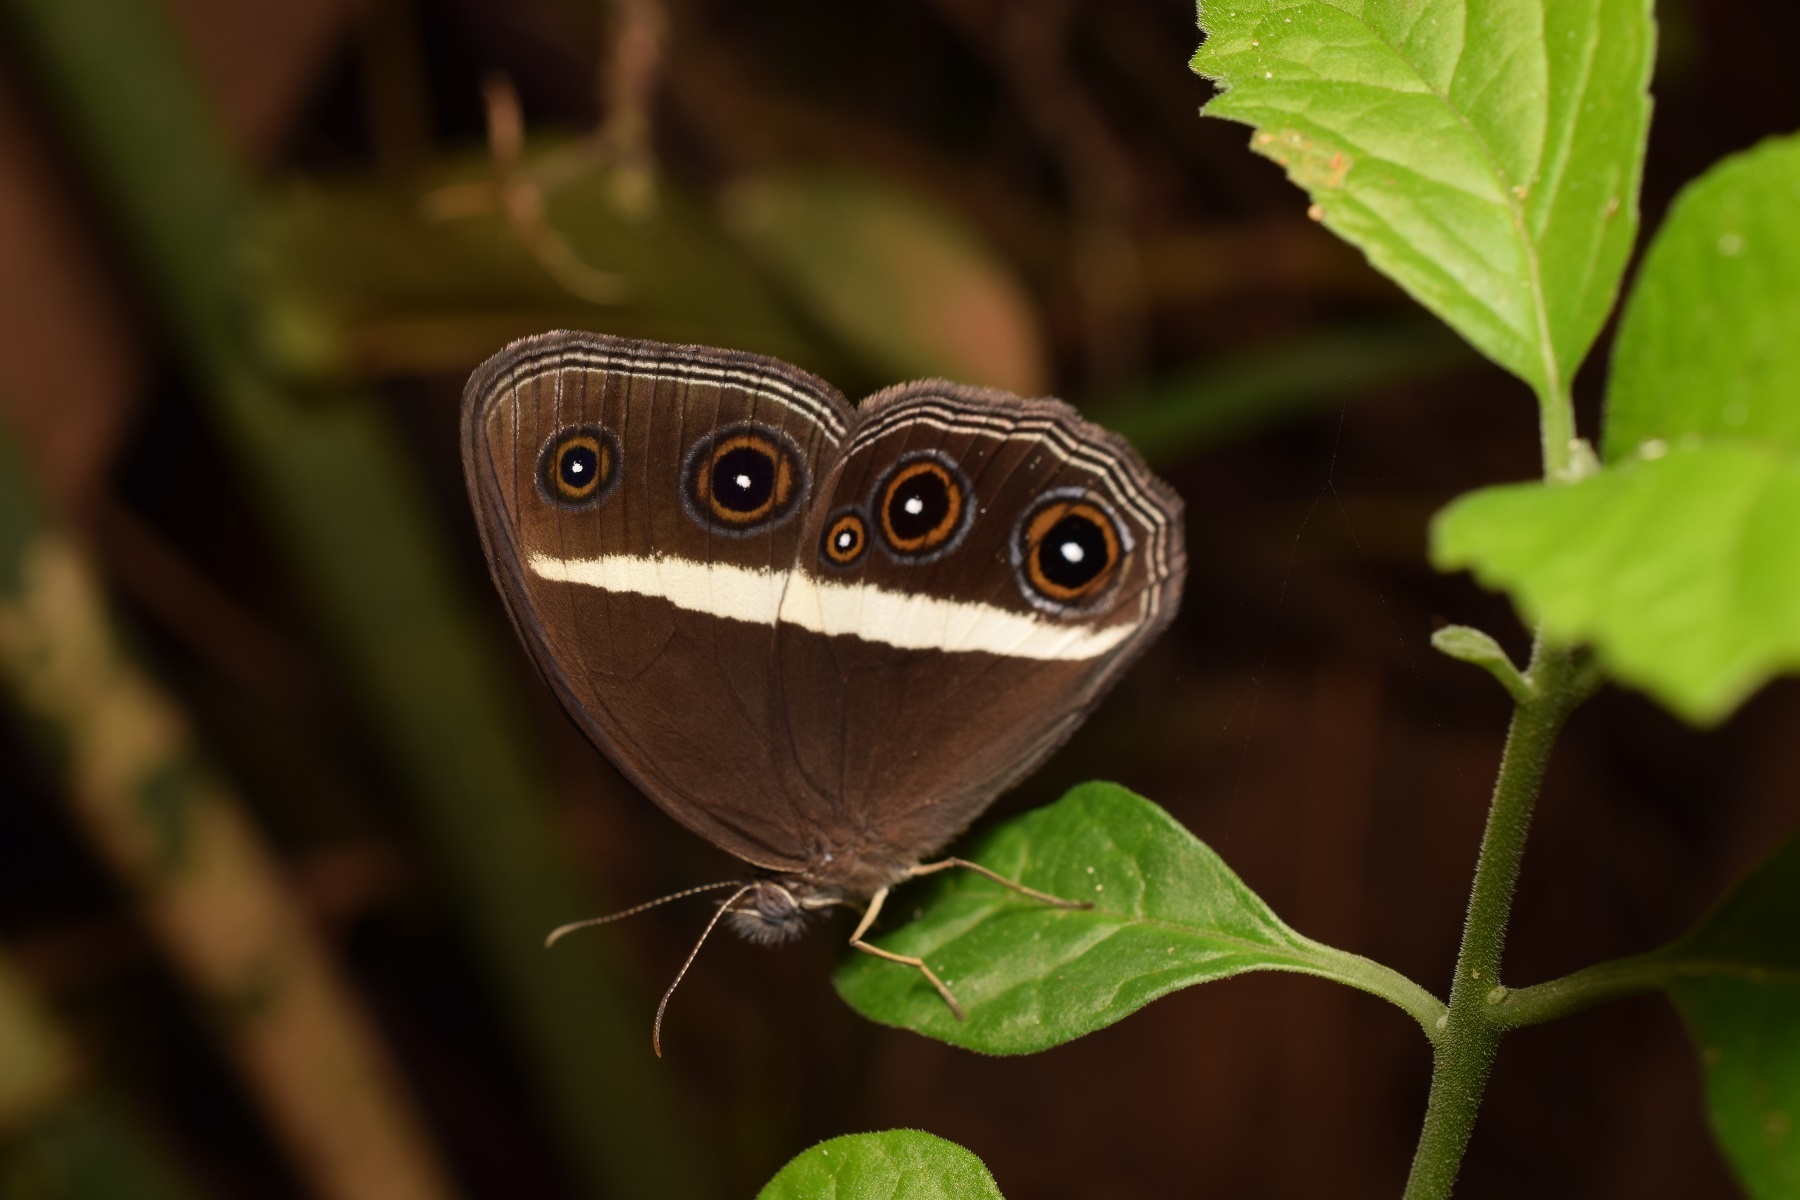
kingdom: Animalia
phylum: Arthropoda
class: Insecta
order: Lepidoptera
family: Nymphalidae
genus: Orsotriaena
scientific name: Orsotriaena medus
